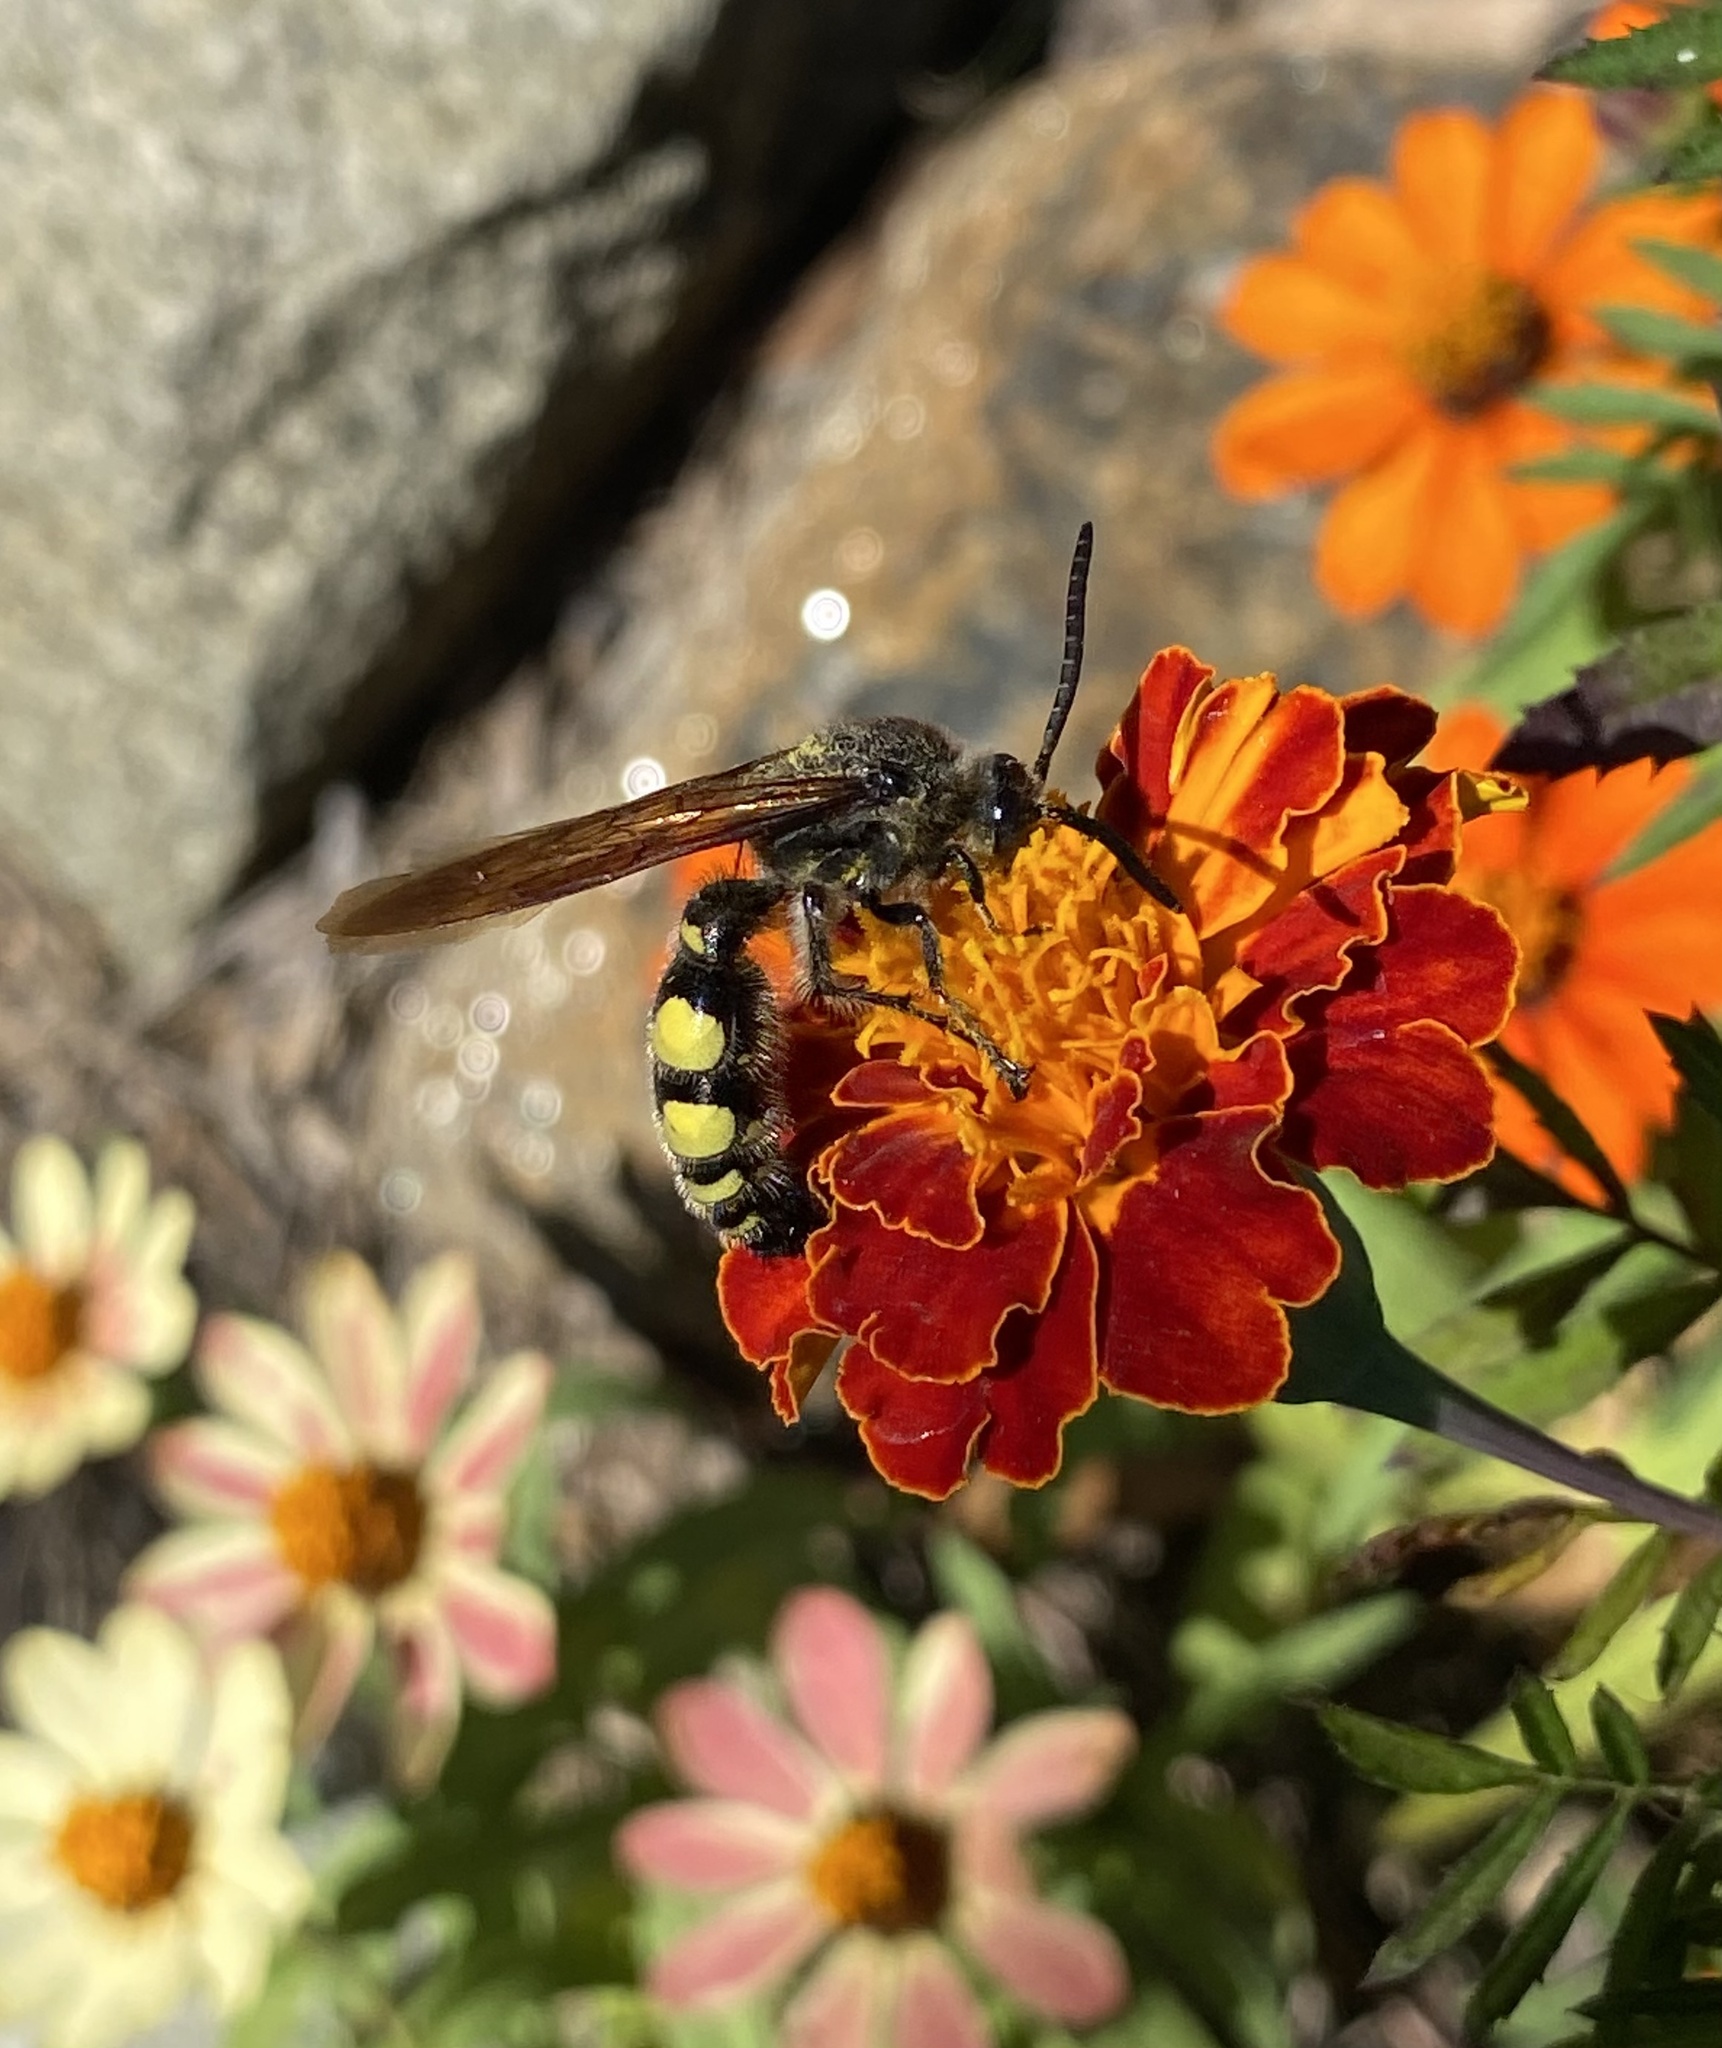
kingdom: Animalia
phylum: Arthropoda
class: Insecta
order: Hymenoptera
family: Scoliidae
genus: Pygodasis
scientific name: Pygodasis
